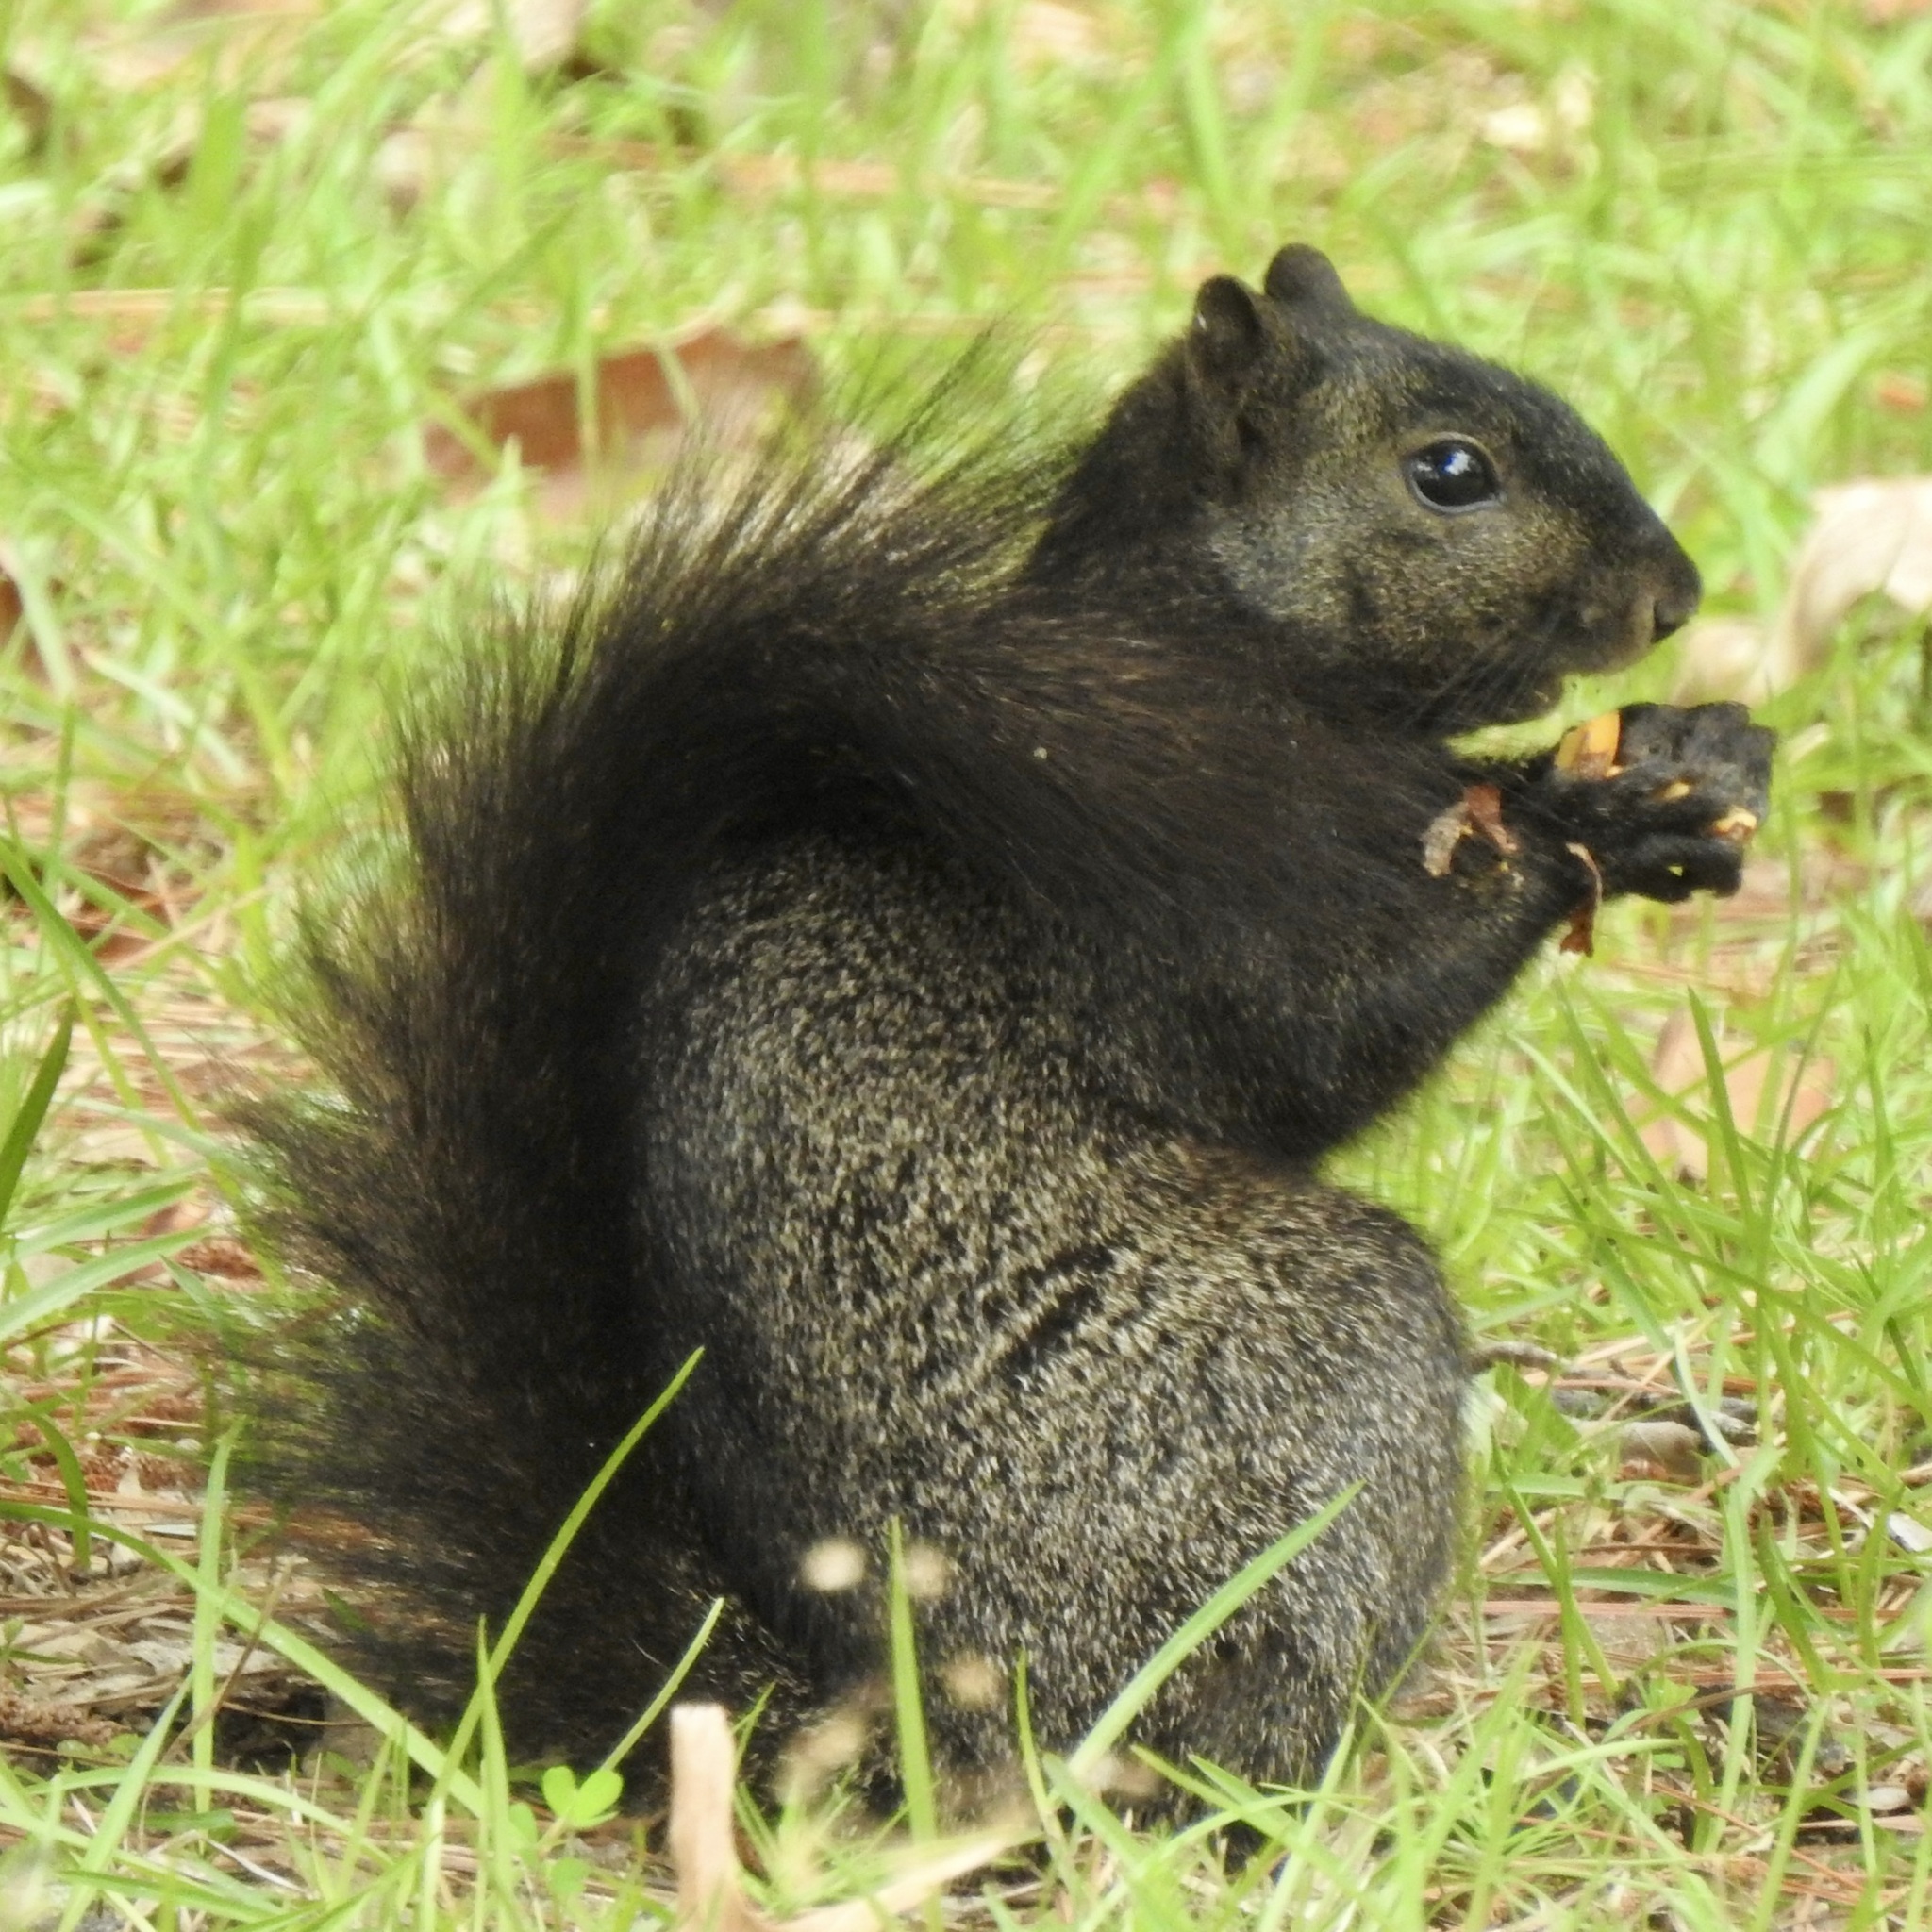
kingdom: Animalia
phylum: Chordata
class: Mammalia
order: Rodentia
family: Sciuridae
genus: Sciurus
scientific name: Sciurus niger
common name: Fox squirrel
